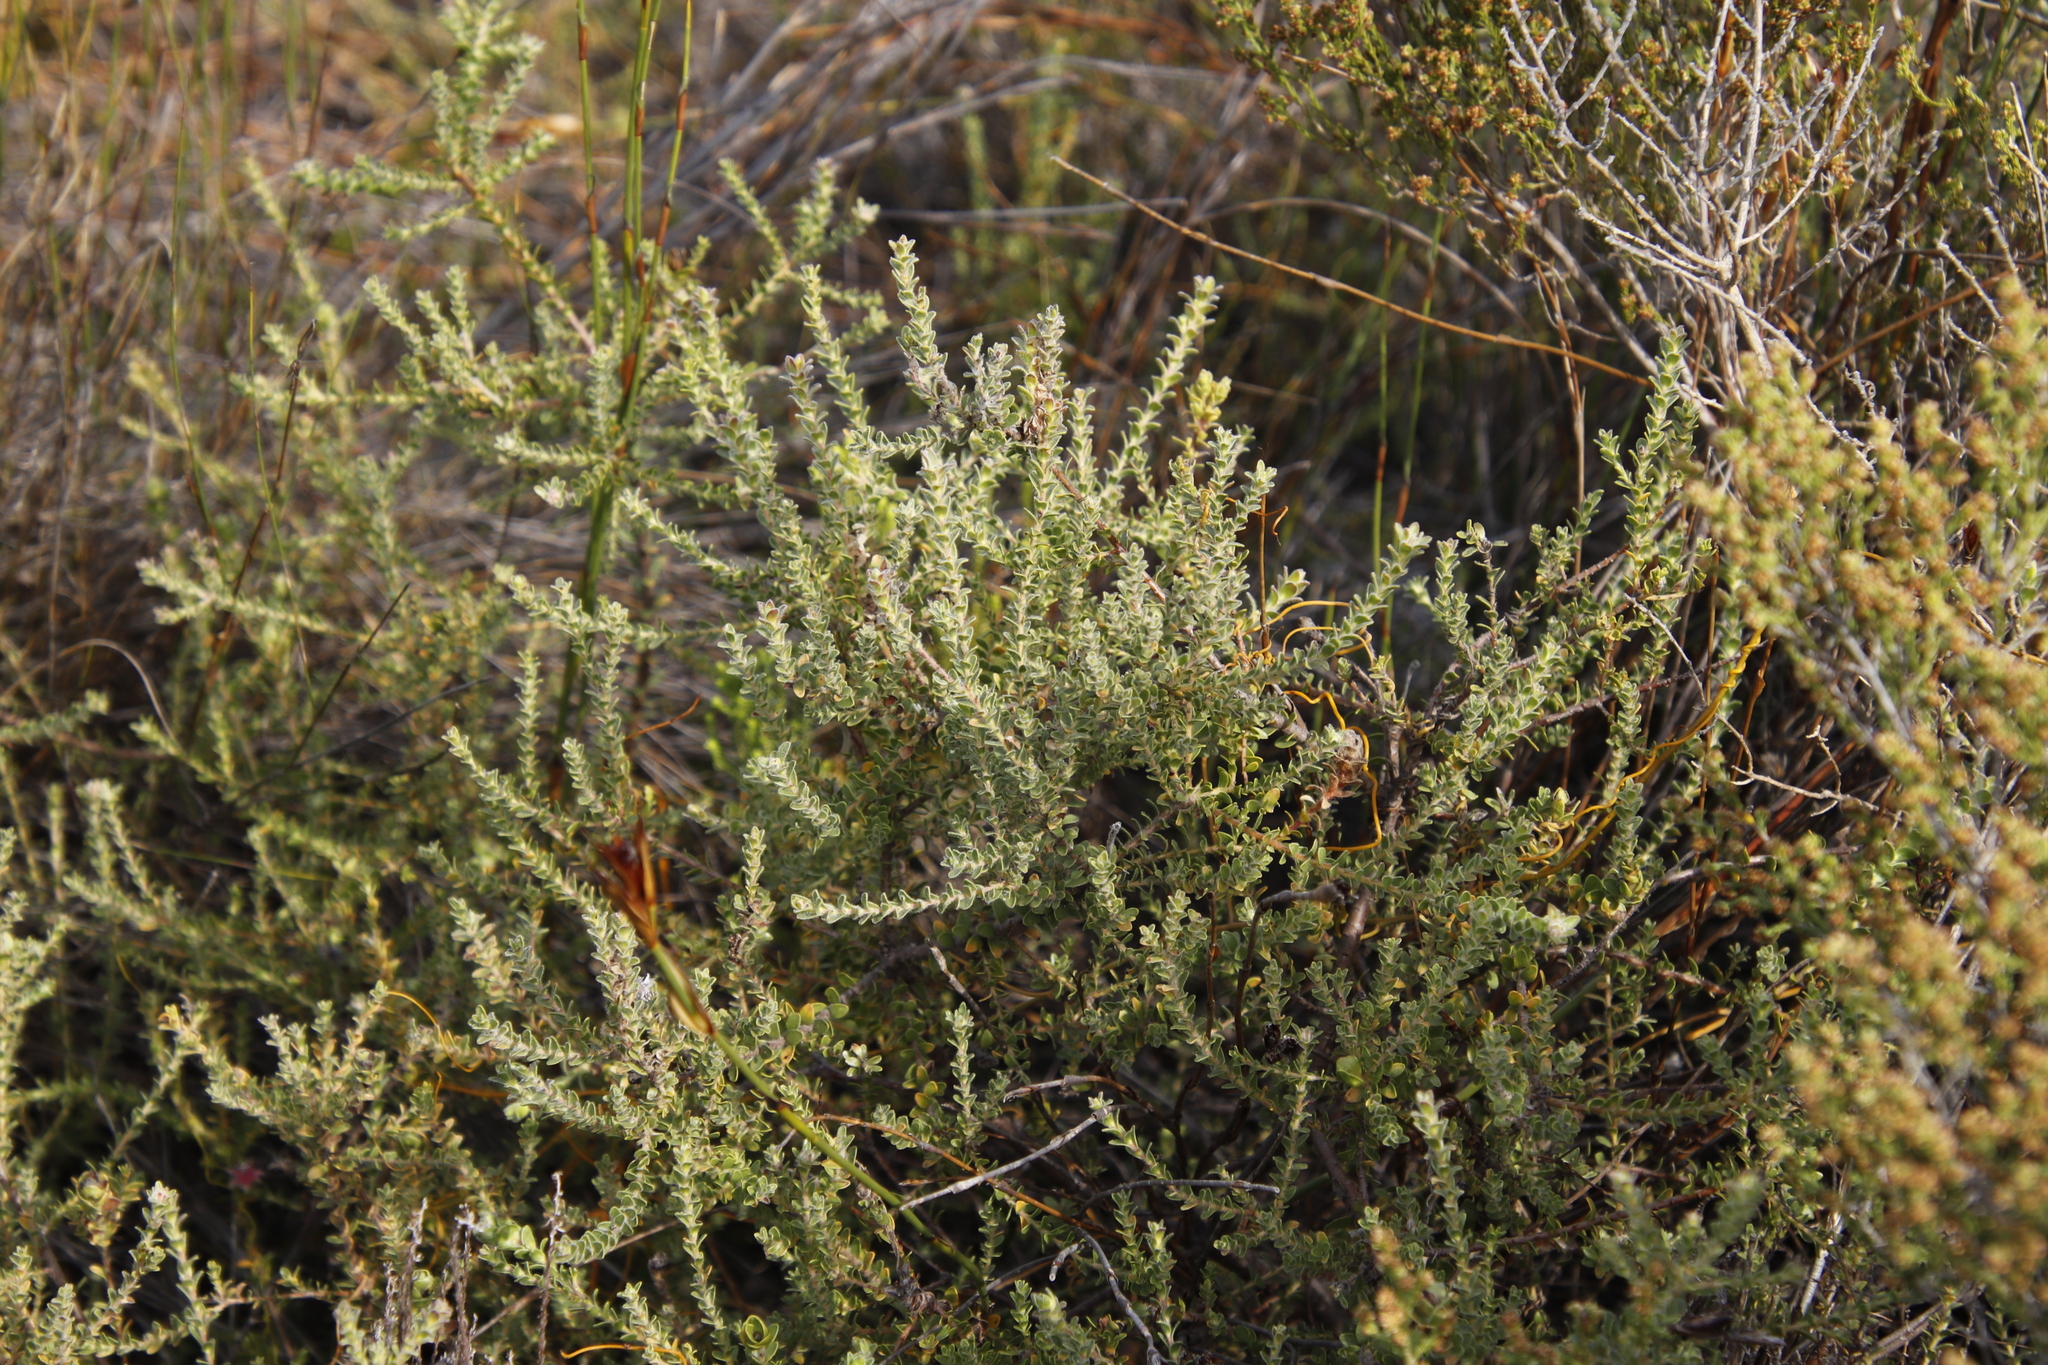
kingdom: Plantae
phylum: Tracheophyta
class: Magnoliopsida
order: Proteales
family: Proteaceae
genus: Diastella
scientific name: Diastella divaricata
